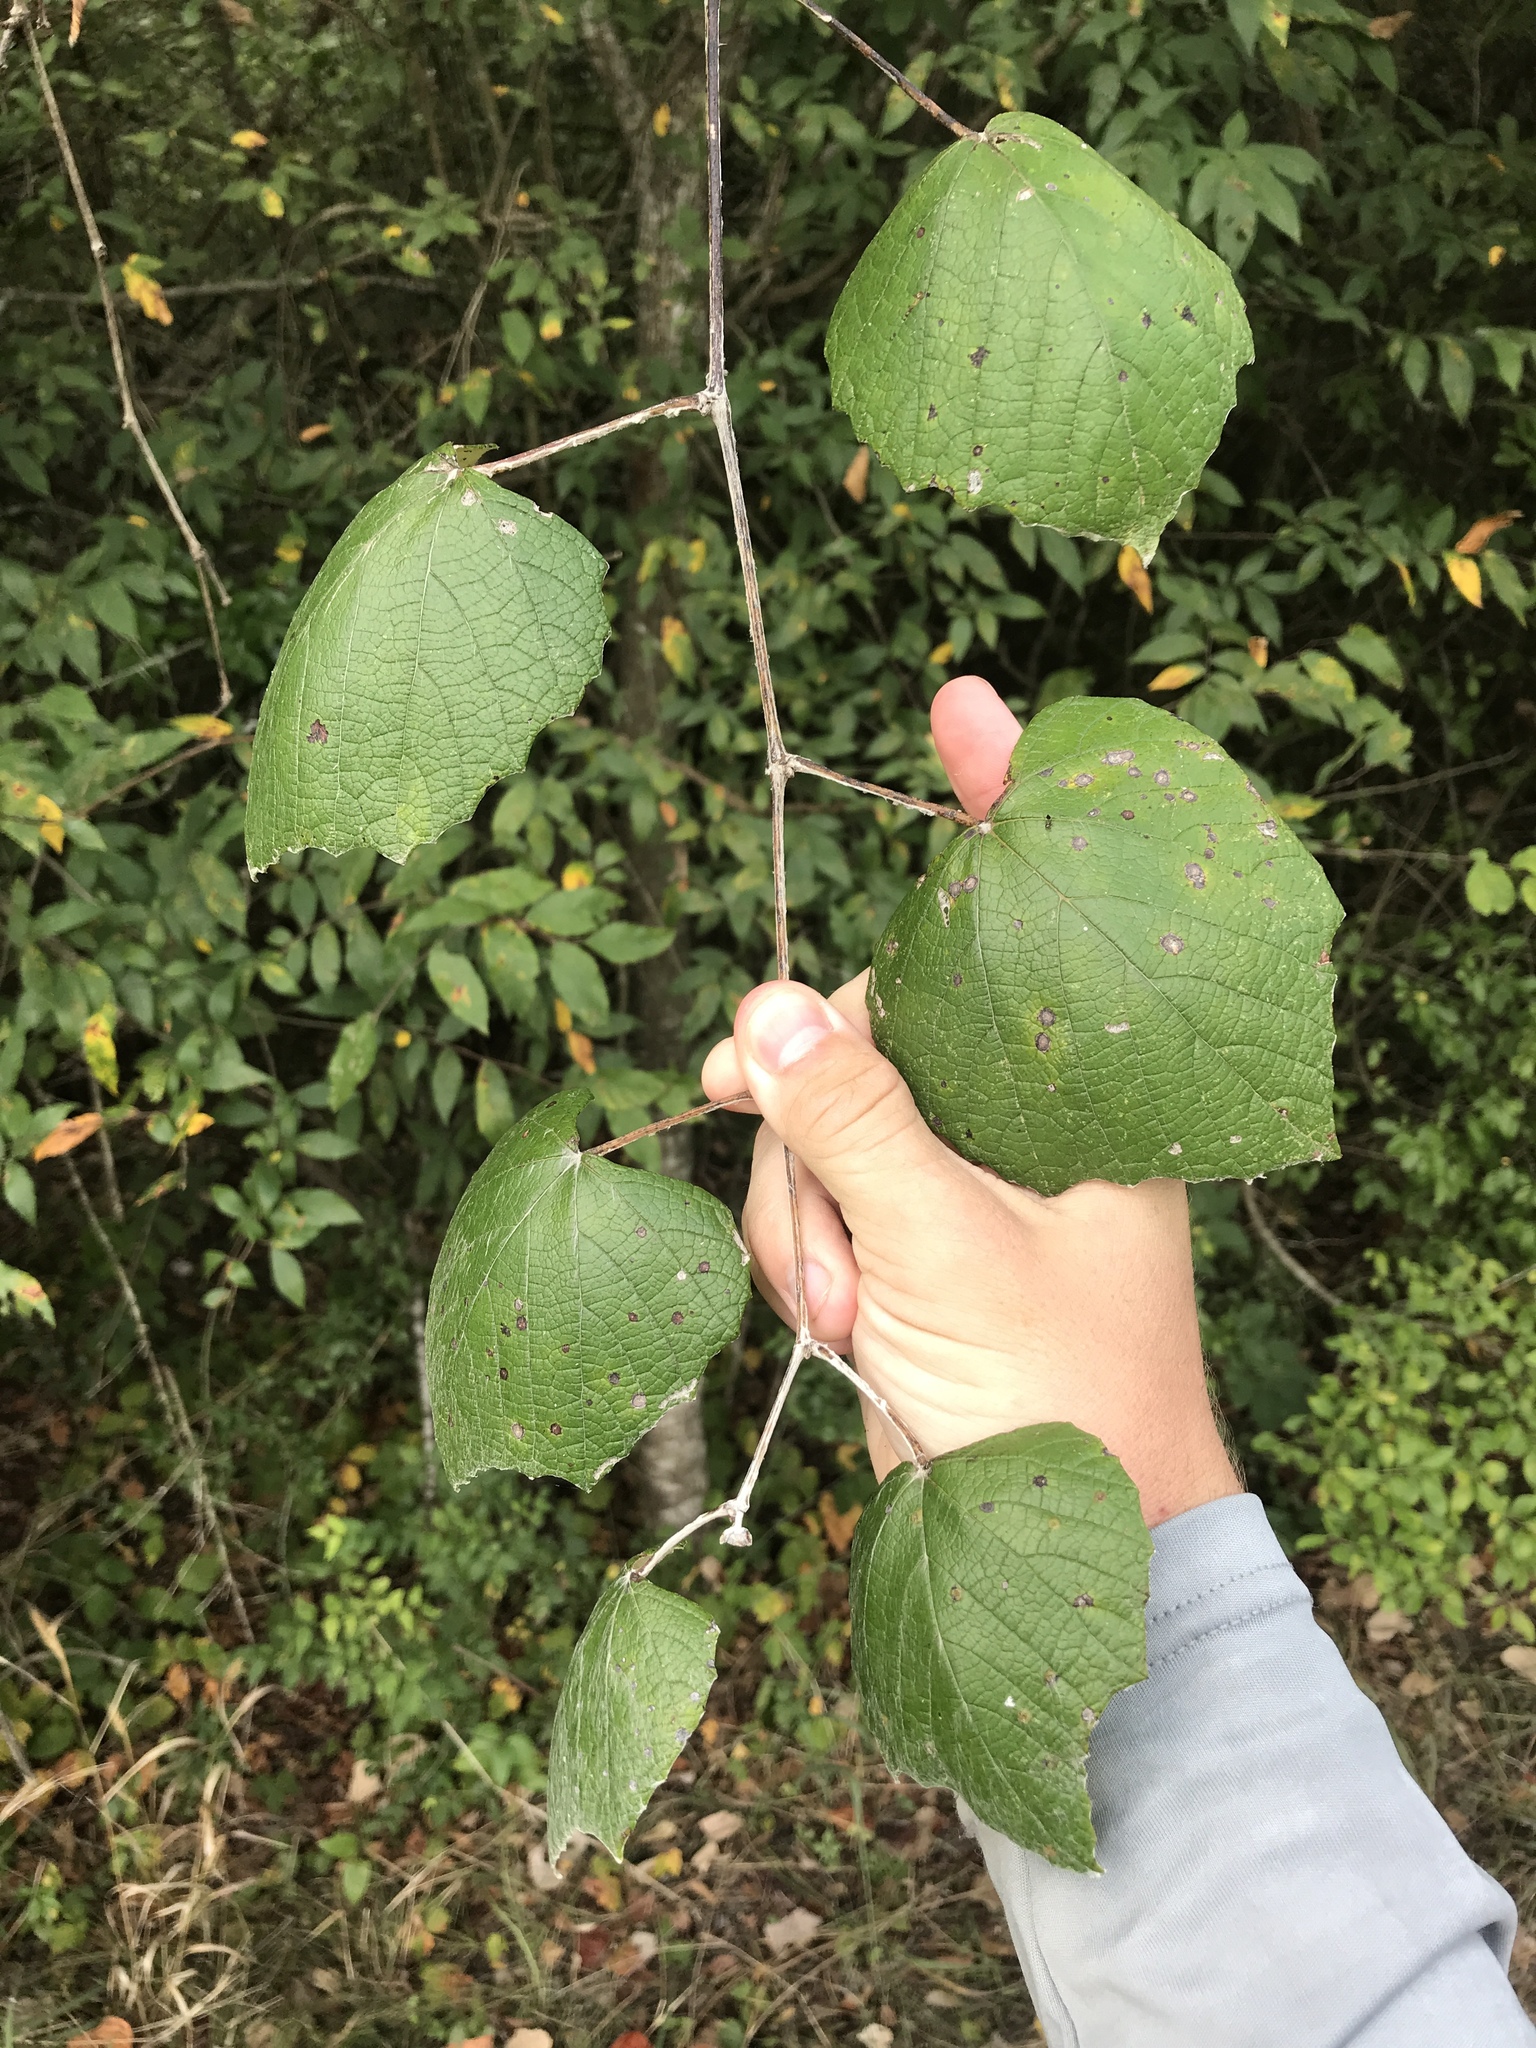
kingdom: Plantae
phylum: Tracheophyta
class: Magnoliopsida
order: Vitales
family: Vitaceae
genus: Vitis
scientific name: Vitis mustangensis
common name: Mustang grape
